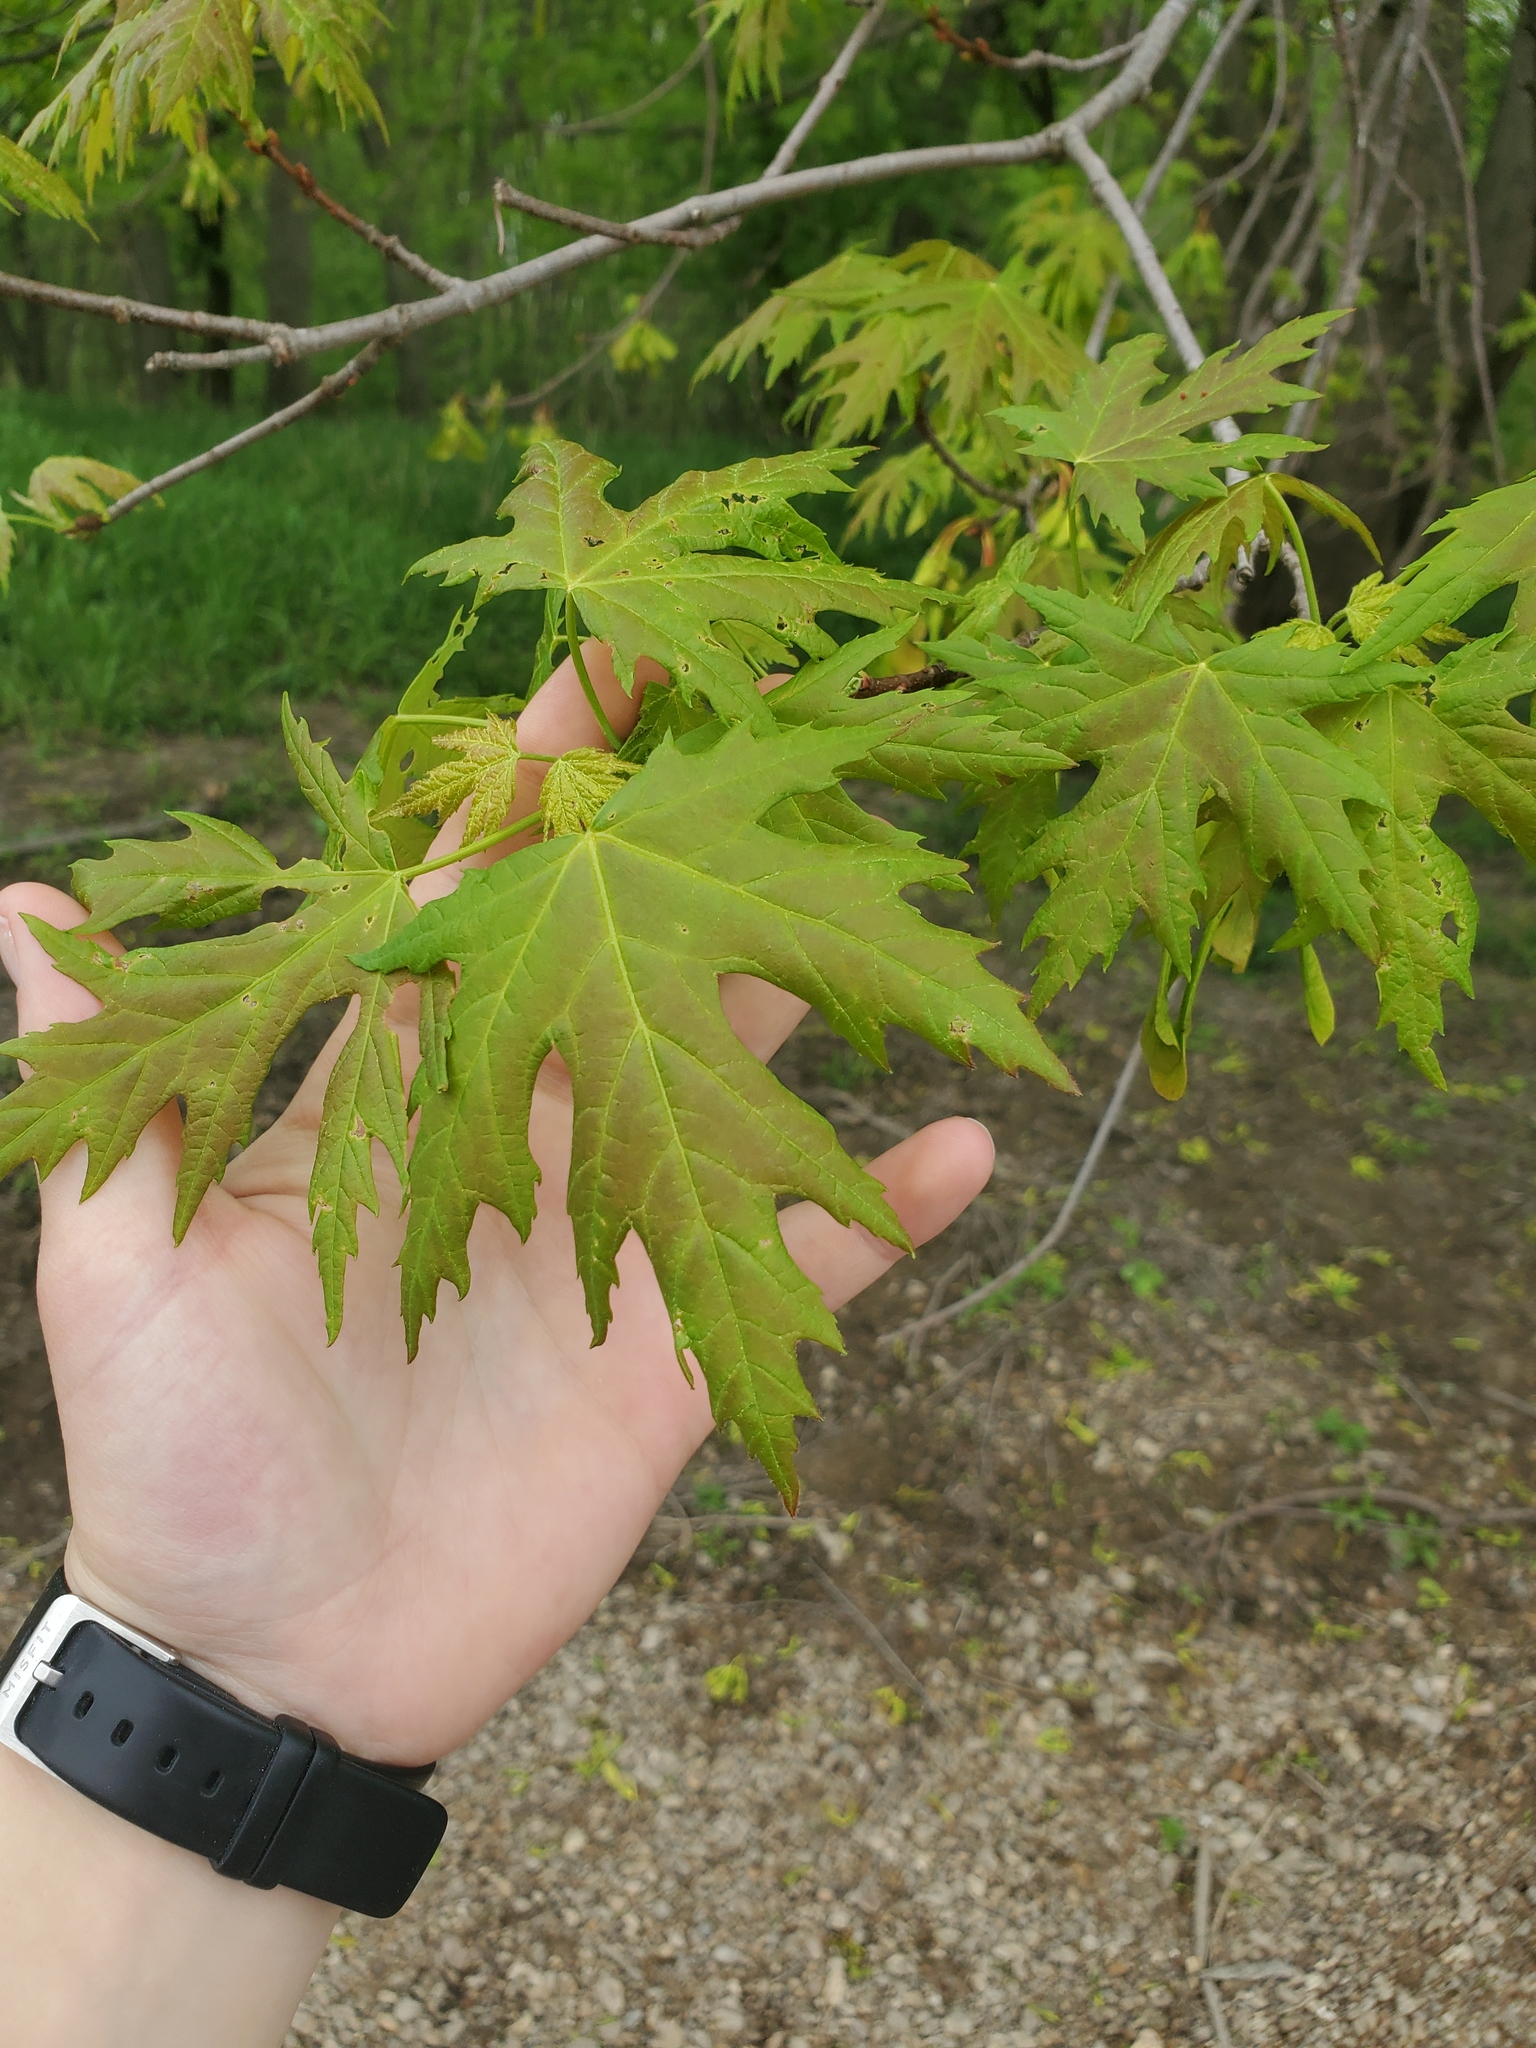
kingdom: Plantae
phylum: Tracheophyta
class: Magnoliopsida
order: Sapindales
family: Sapindaceae
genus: Acer
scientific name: Acer saccharinum
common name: Silver maple
